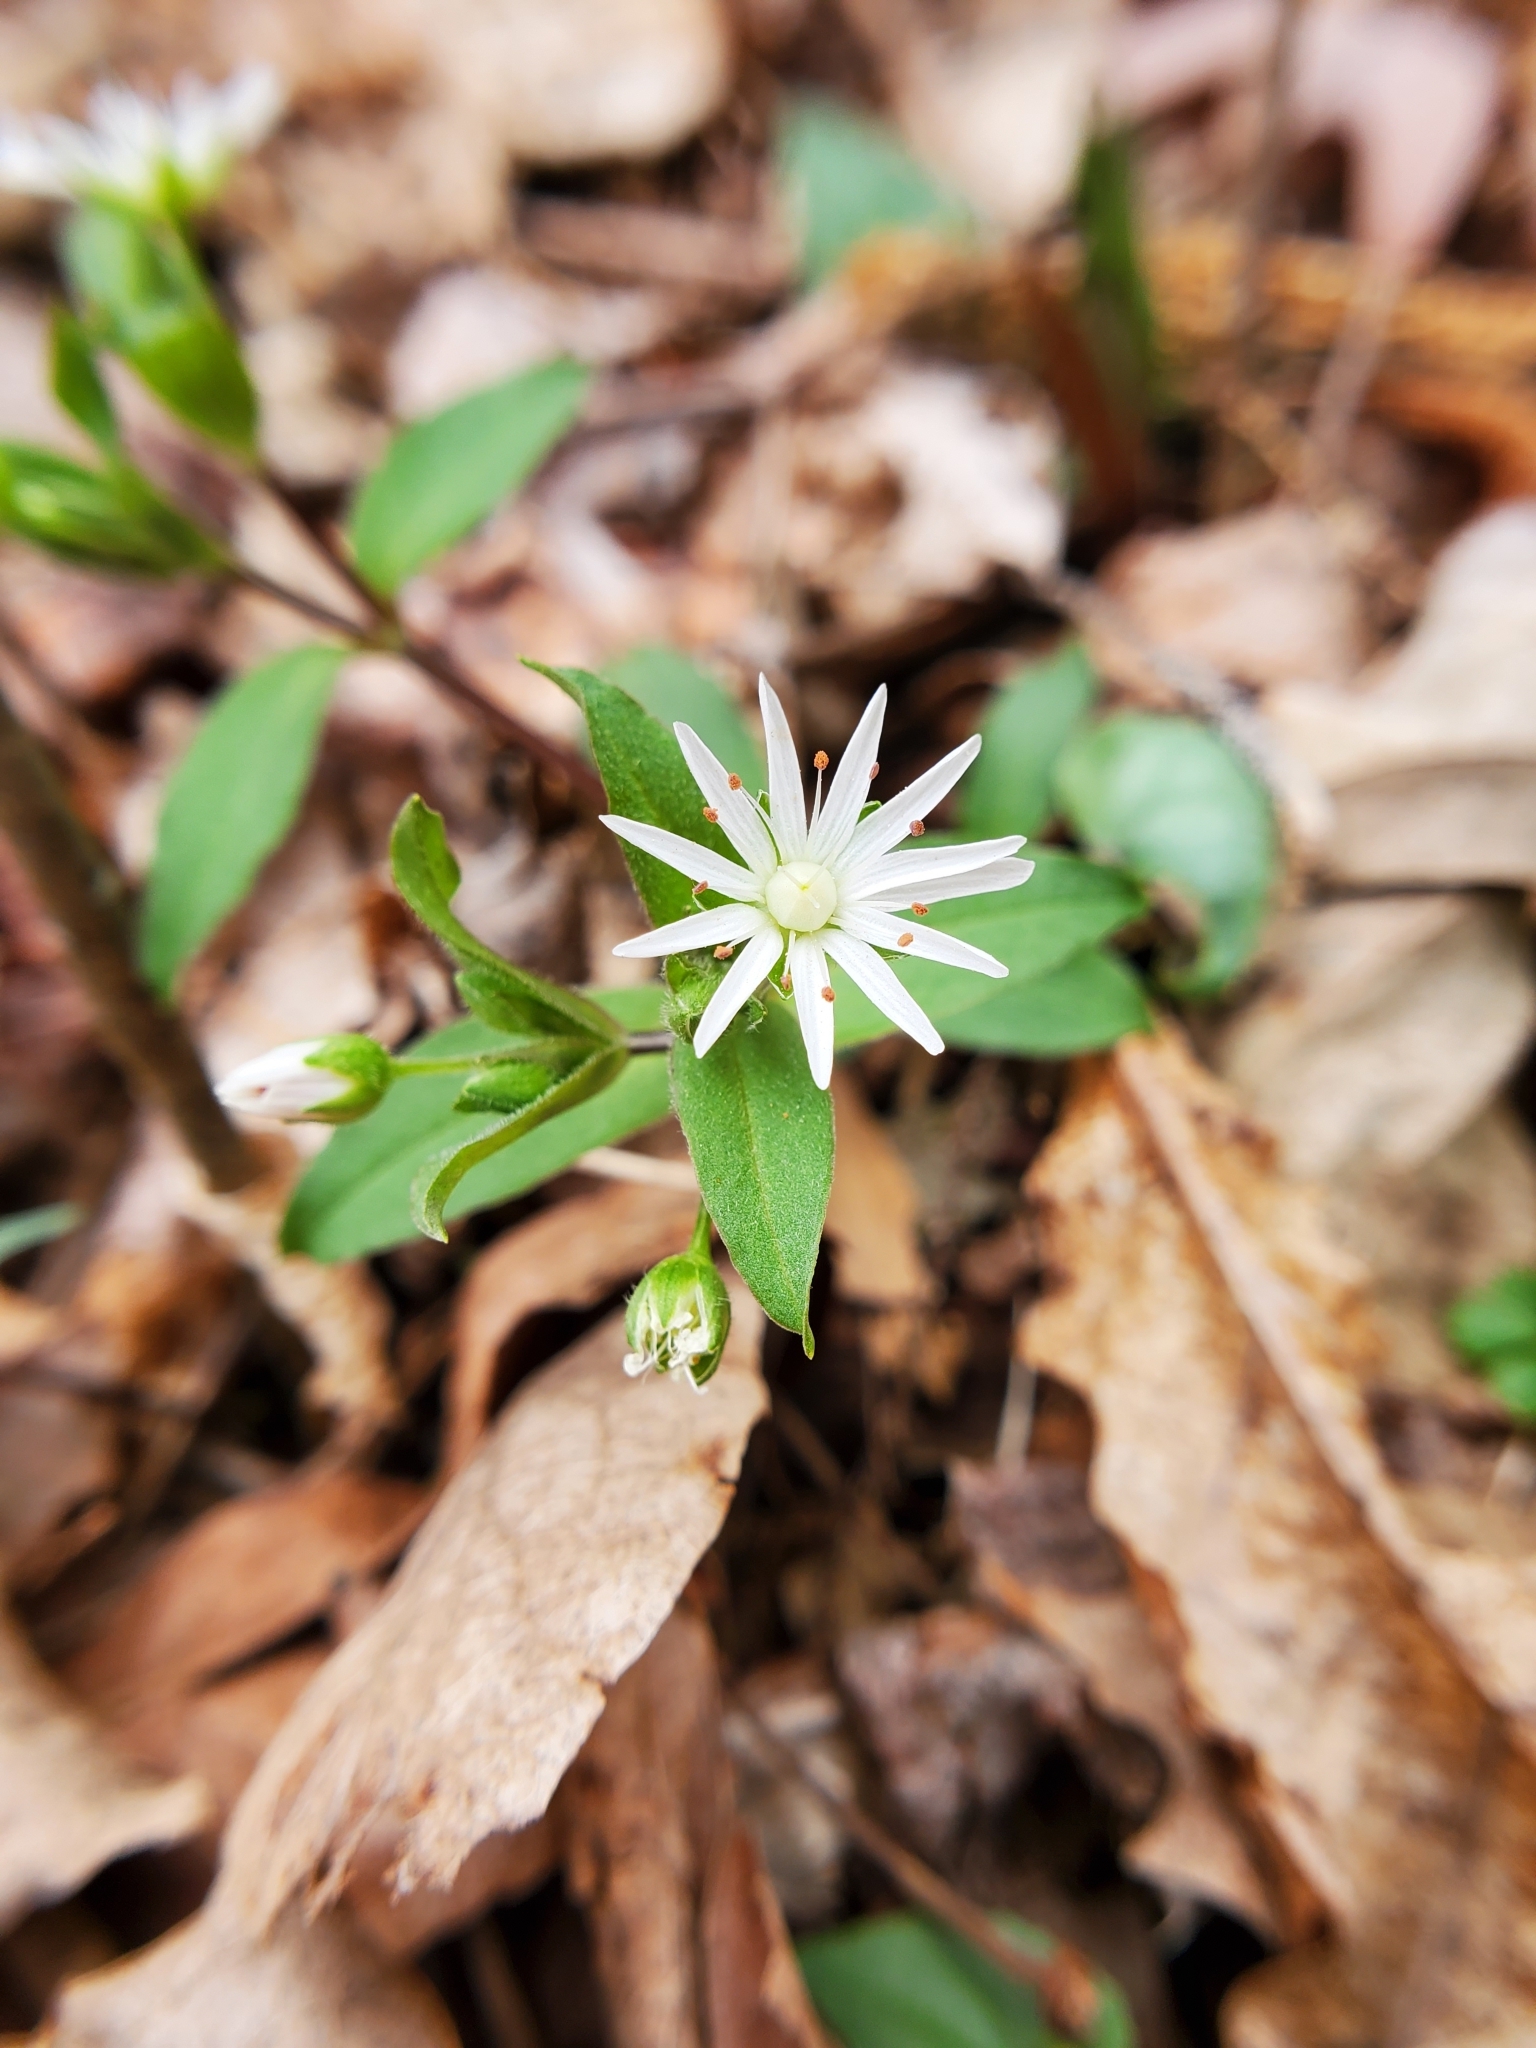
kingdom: Plantae
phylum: Tracheophyta
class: Magnoliopsida
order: Caryophyllales
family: Caryophyllaceae
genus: Stellaria
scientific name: Stellaria pubera
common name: Star chickweed
